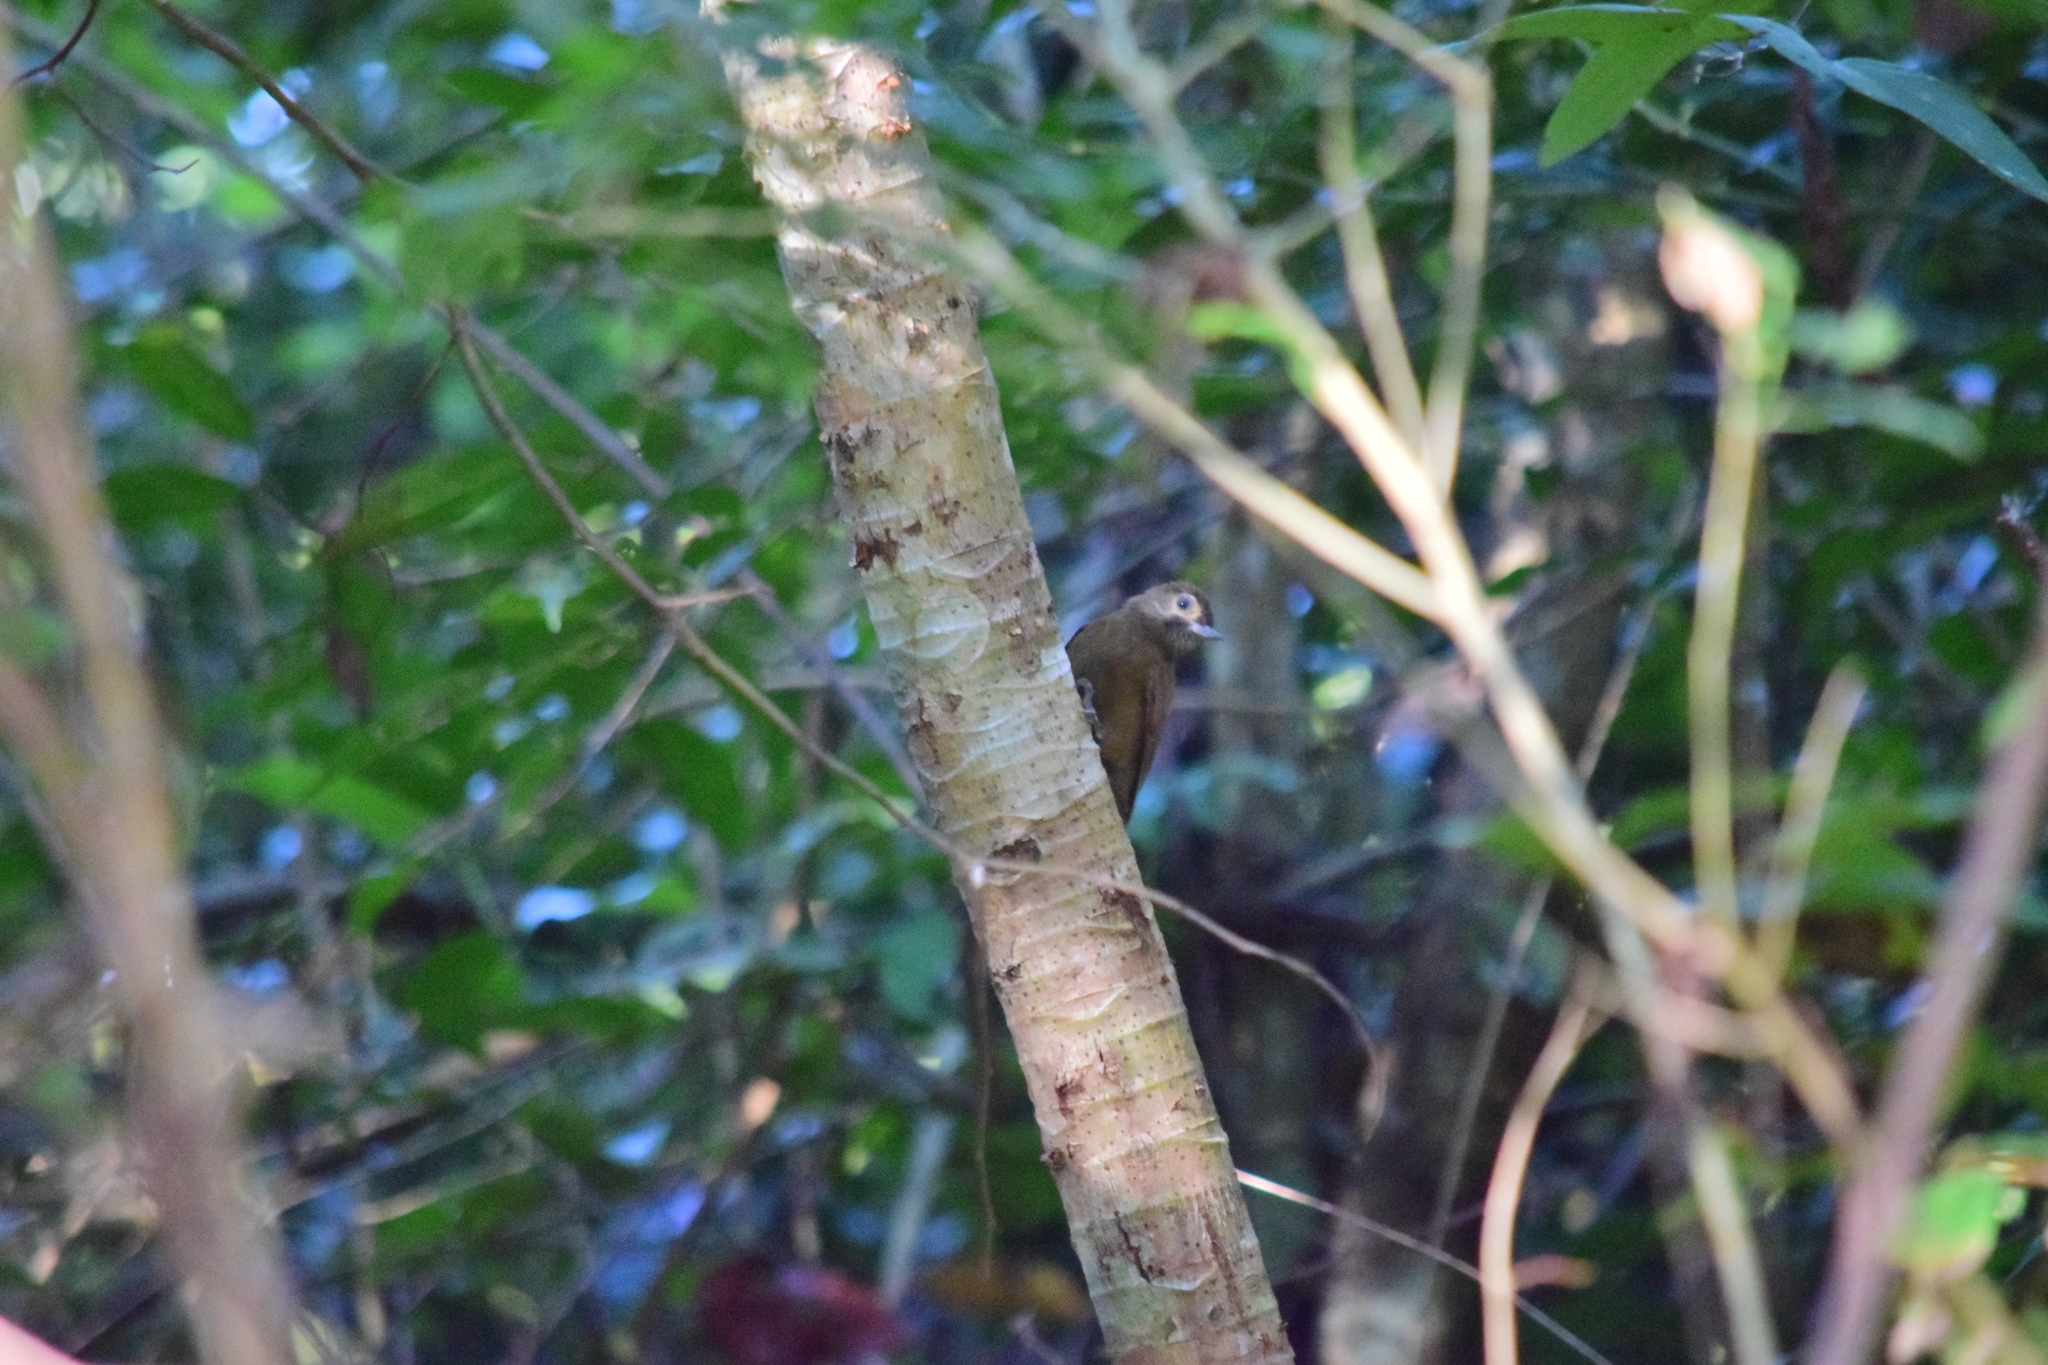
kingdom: Animalia
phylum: Chordata
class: Aves
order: Passeriformes
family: Furnariidae
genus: Dendrocincla
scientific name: Dendrocincla homochroa
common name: Ruddy woodcreeper
